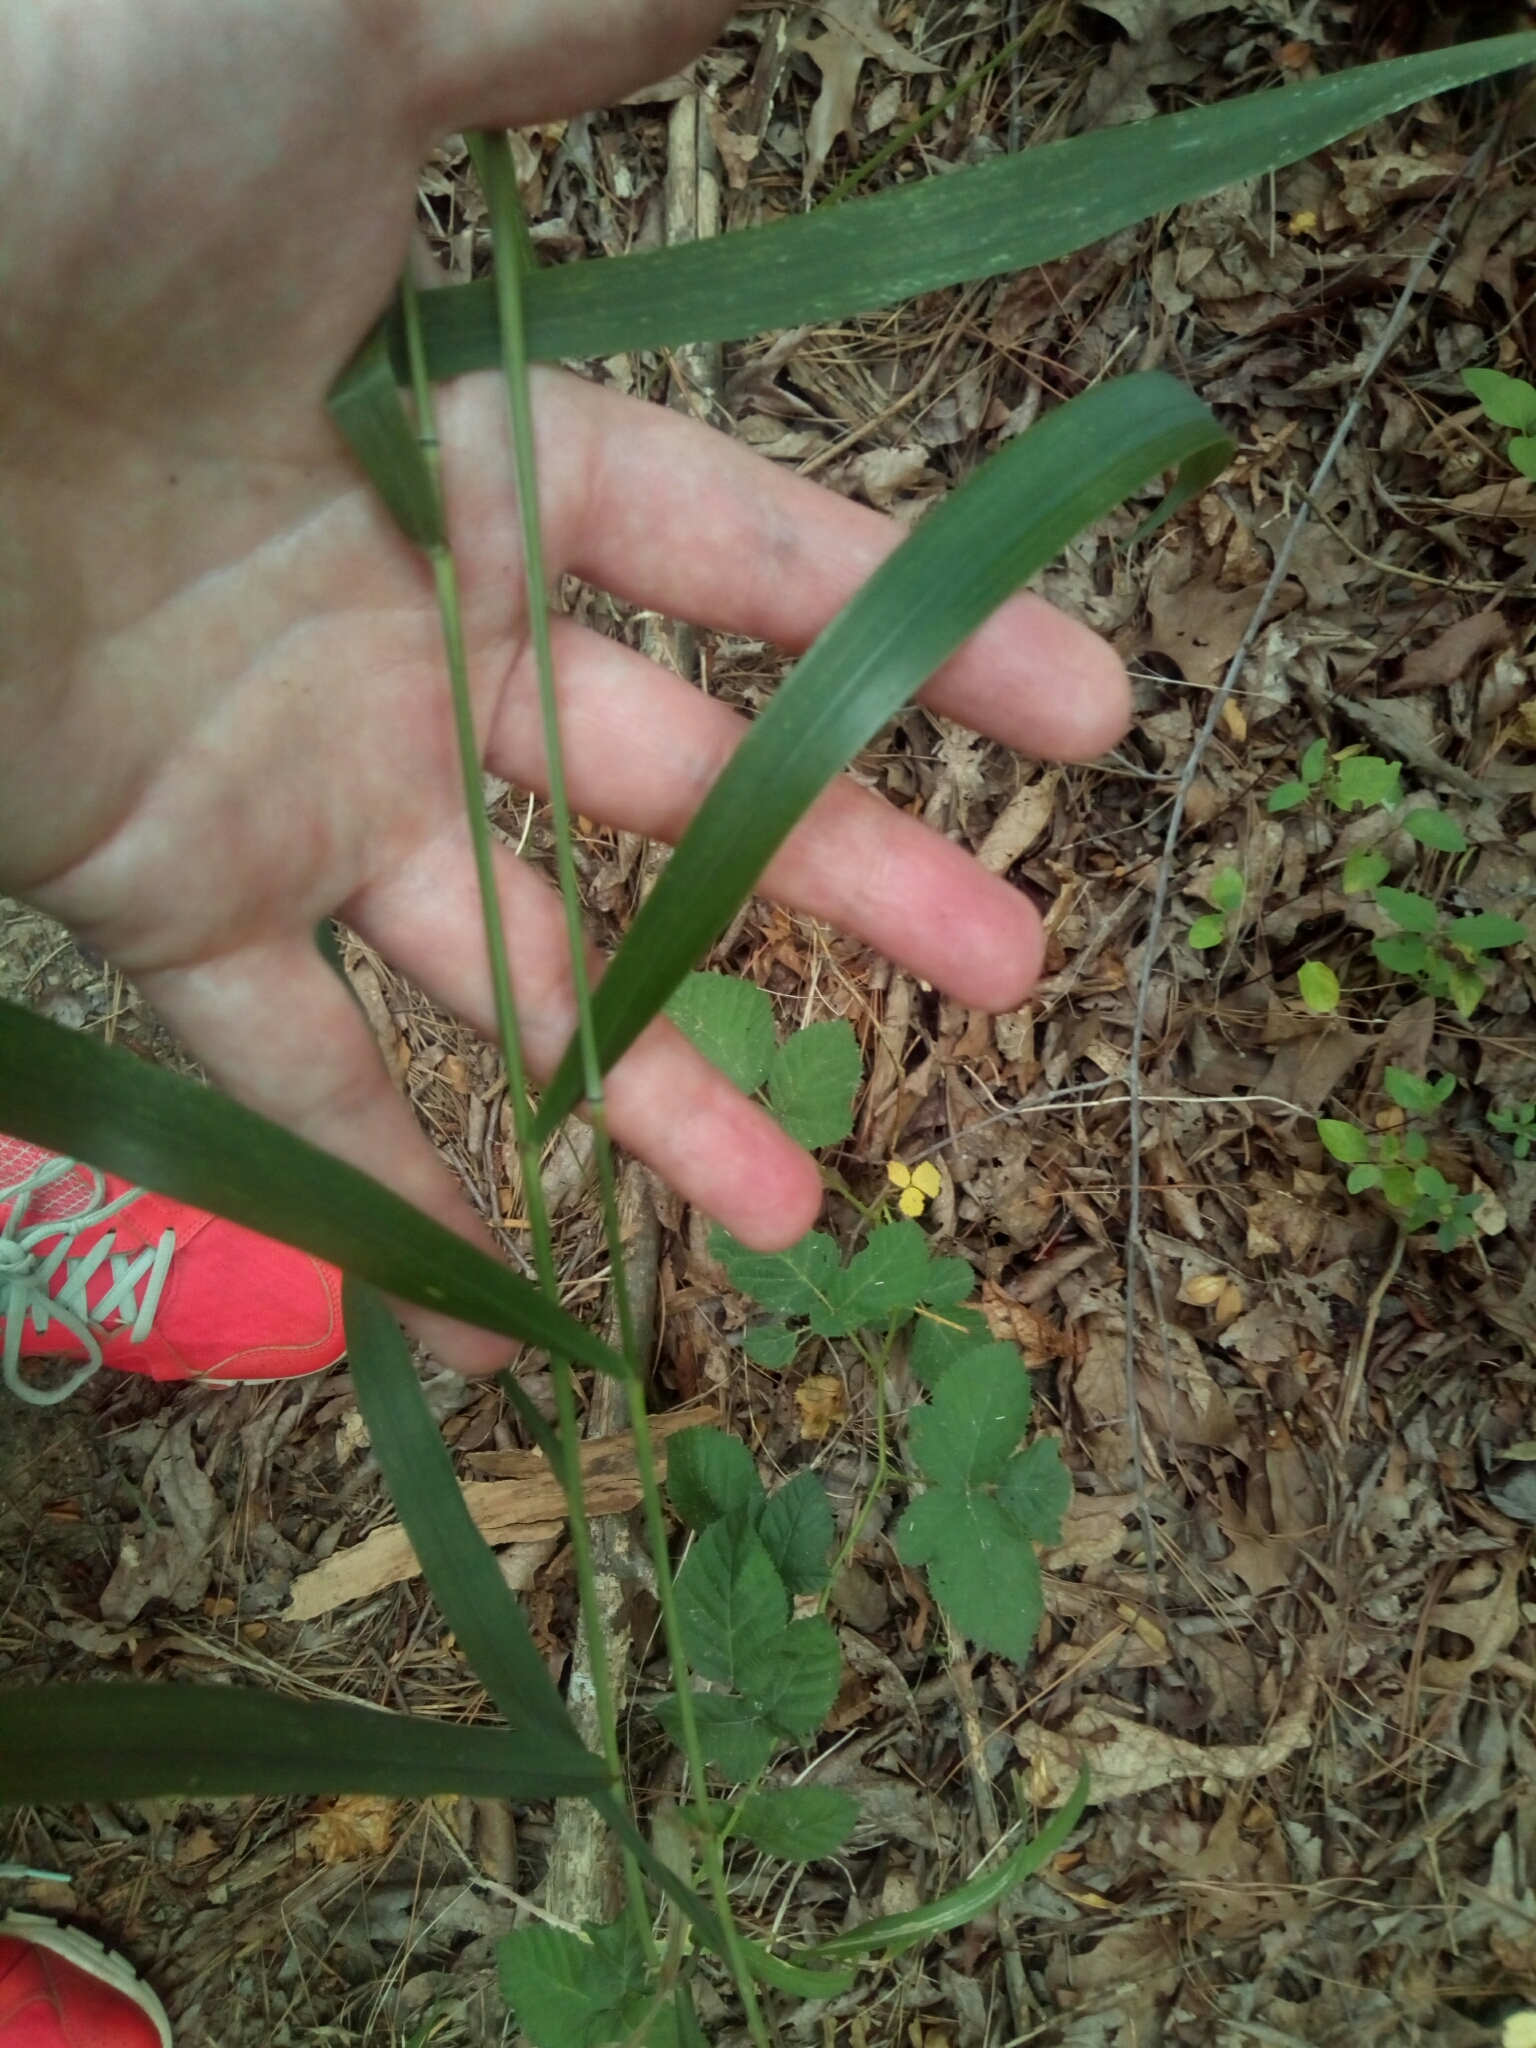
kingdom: Plantae
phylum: Tracheophyta
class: Liliopsida
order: Poales
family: Poaceae
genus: Elymus
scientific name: Elymus hystrix
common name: Bottlebrush grass
